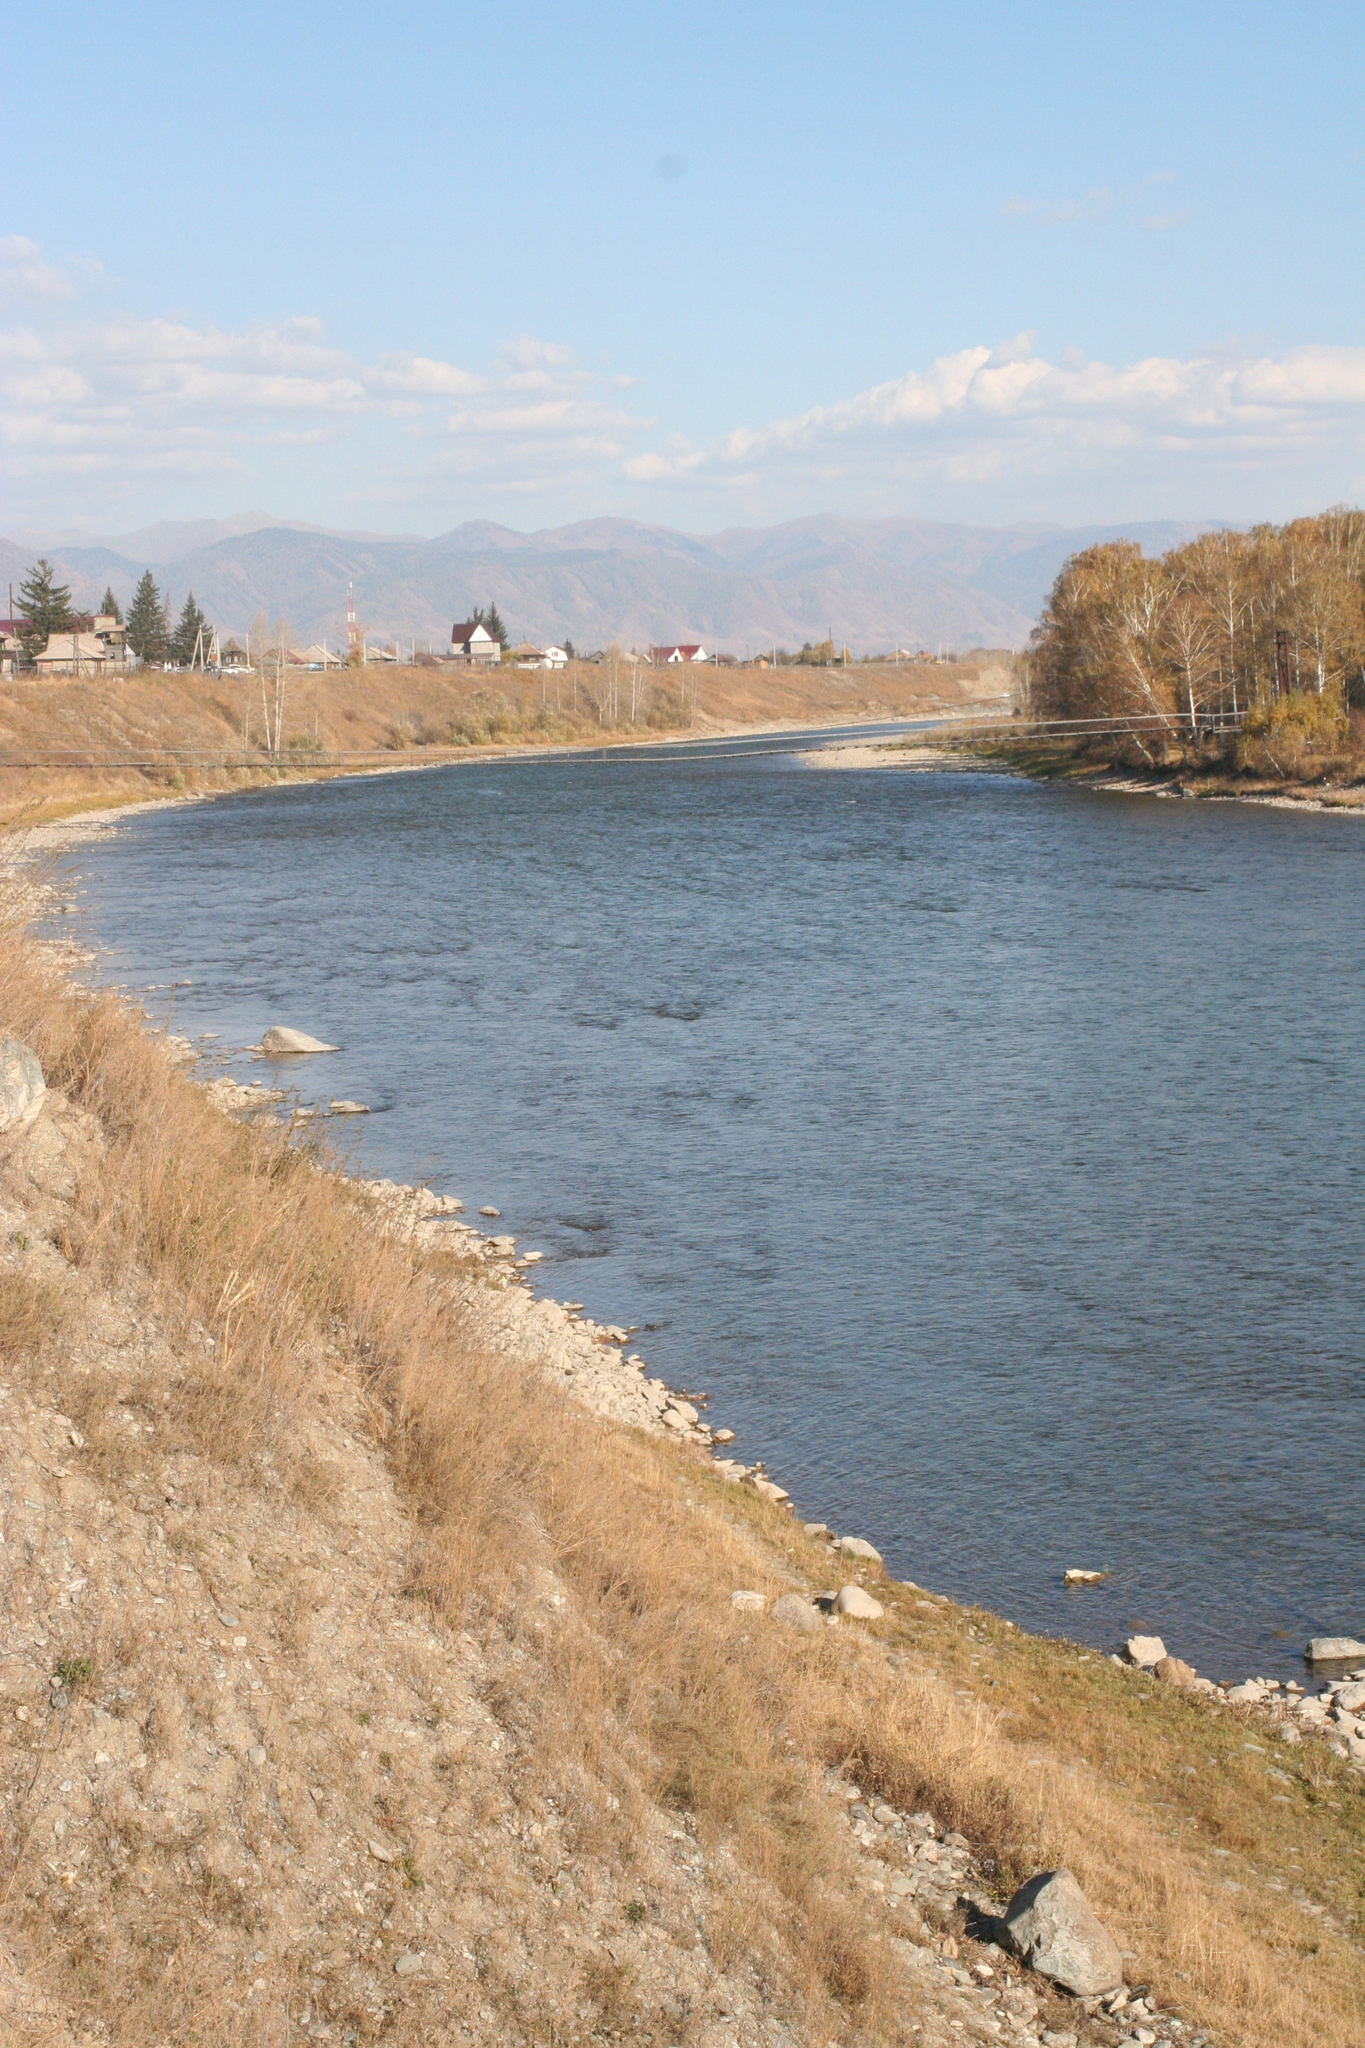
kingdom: Plantae
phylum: Tracheophyta
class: Magnoliopsida
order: Fagales
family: Betulaceae
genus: Betula
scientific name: Betula pendula
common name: Silver birch
